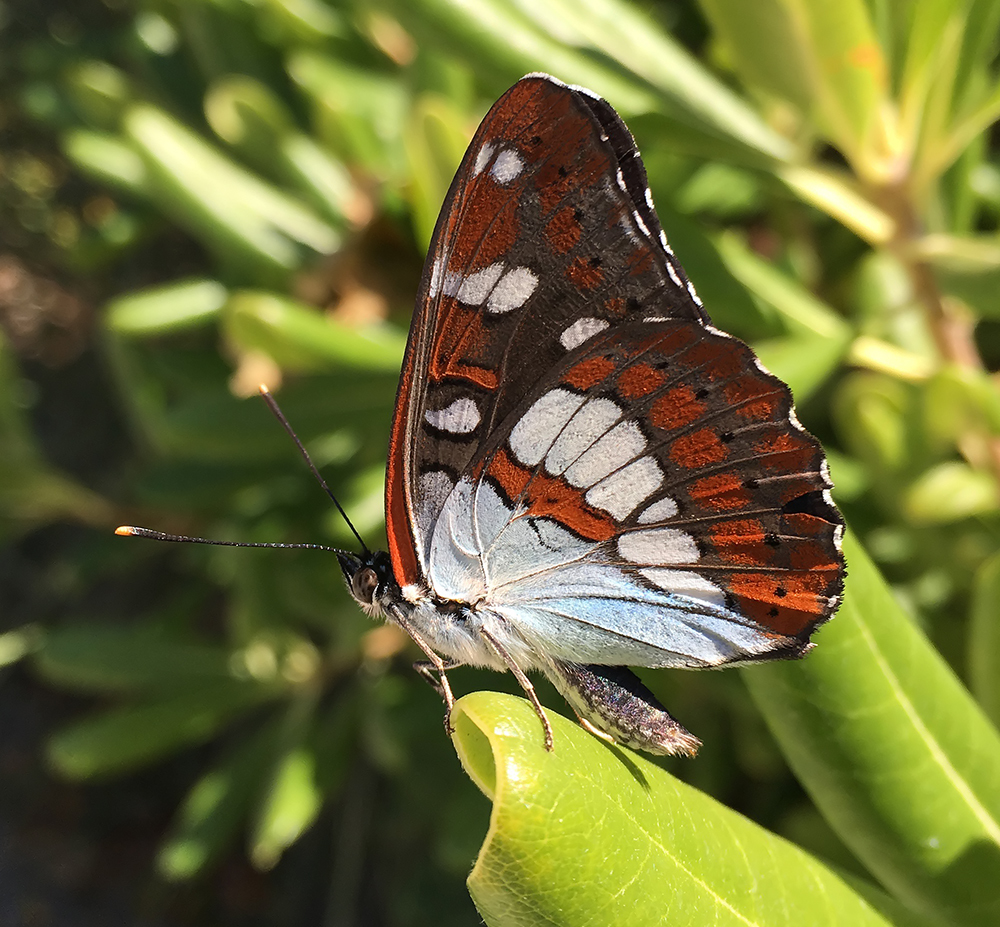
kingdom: Animalia
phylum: Arthropoda
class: Insecta
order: Lepidoptera
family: Nymphalidae
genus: Limenitis
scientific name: Limenitis reducta
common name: Southern white admiral
